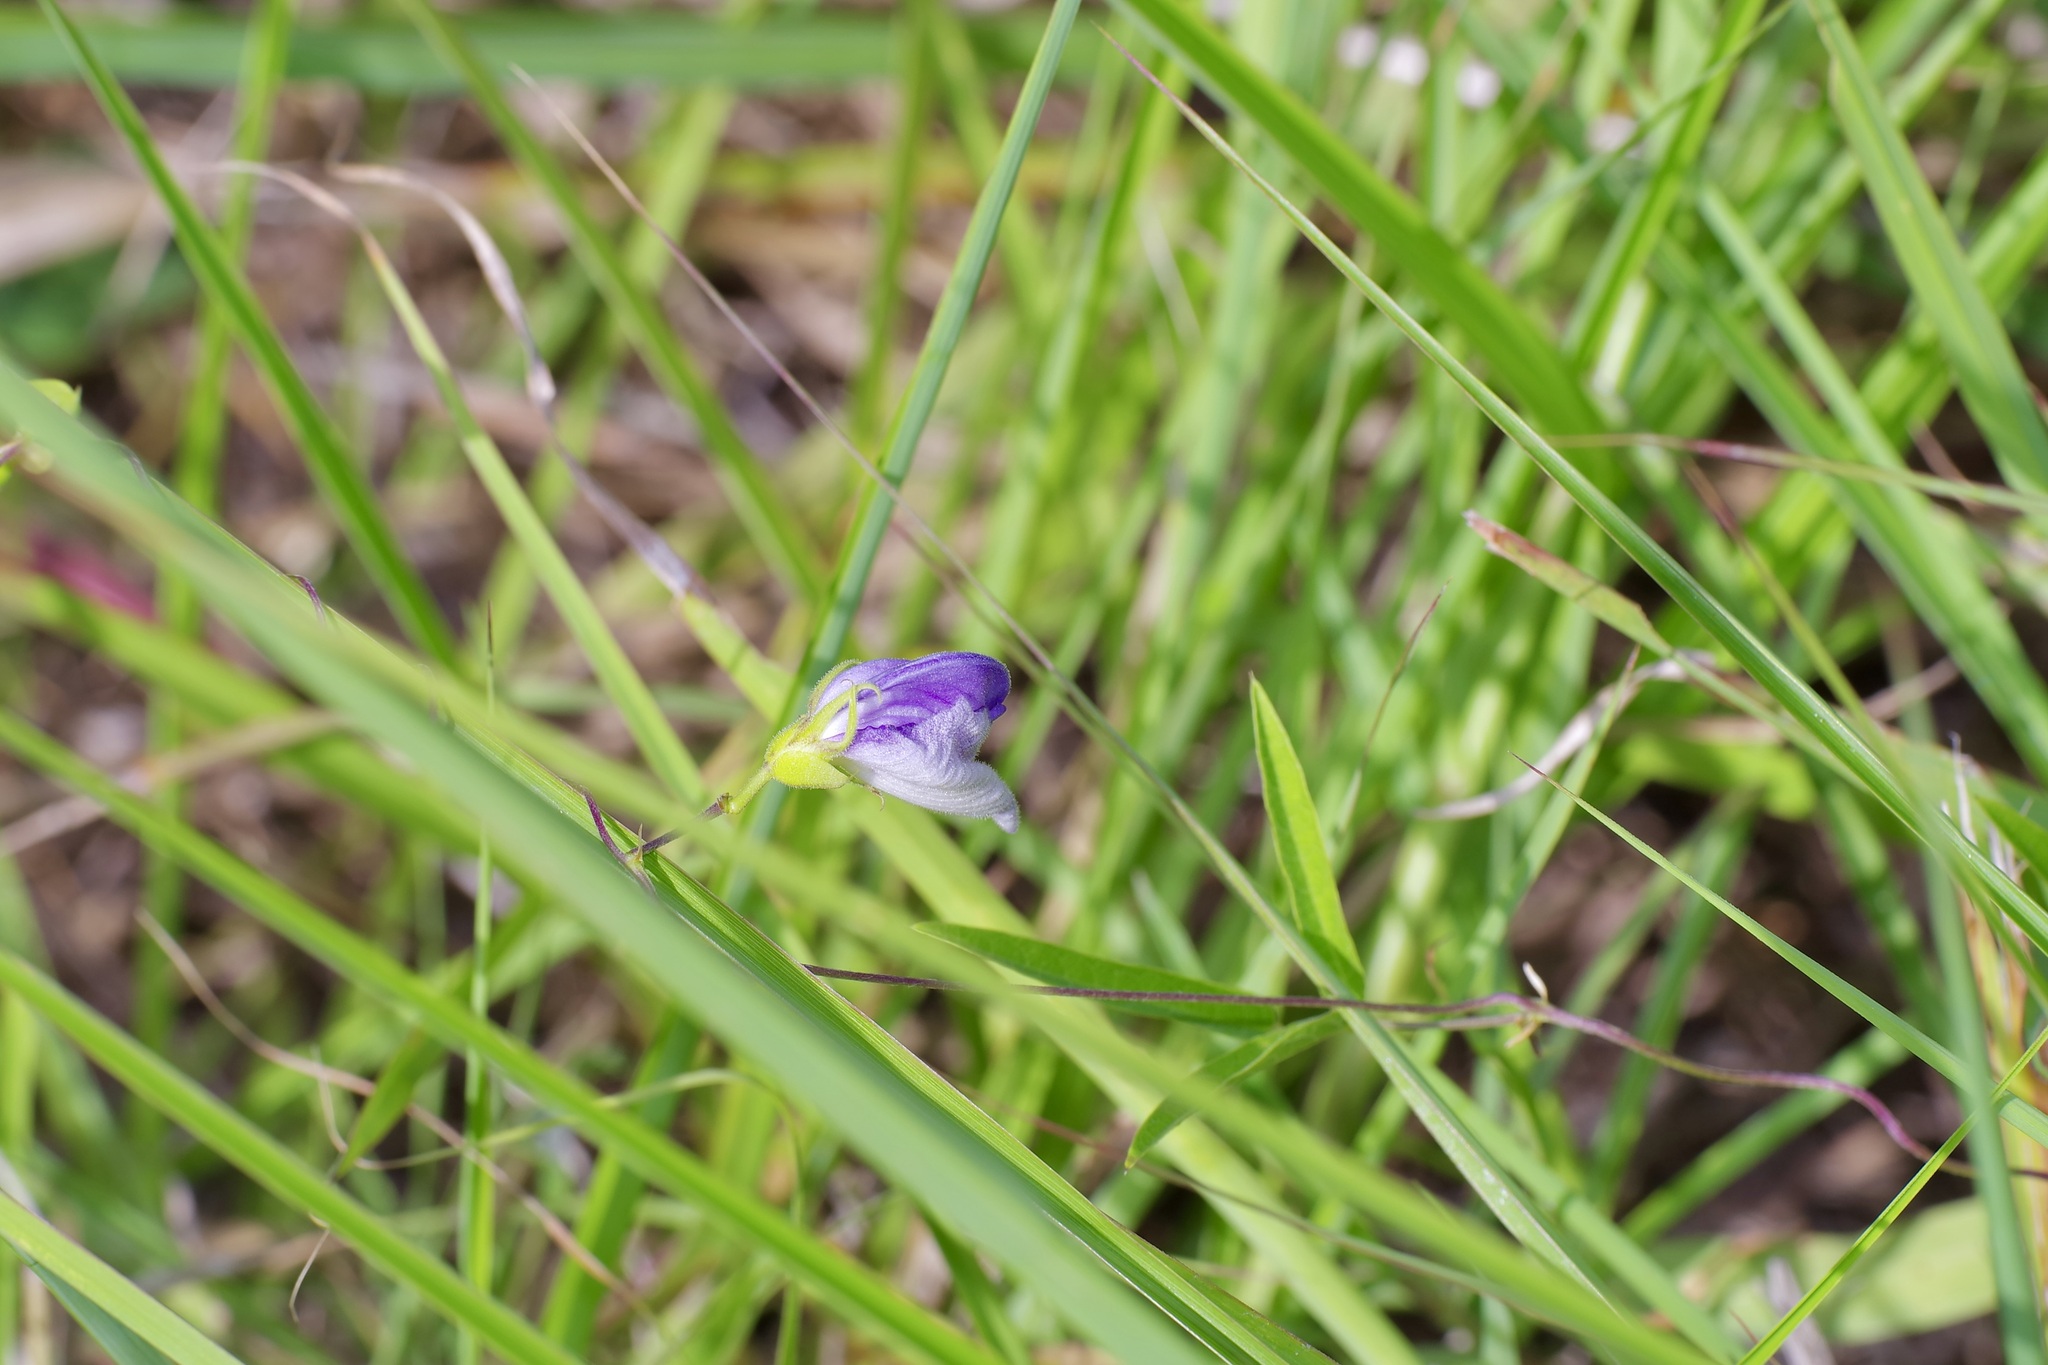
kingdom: Plantae
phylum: Tracheophyta
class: Magnoliopsida
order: Fabales
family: Fabaceae
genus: Centrosema
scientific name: Centrosema virginianum
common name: Butterfly-pea
